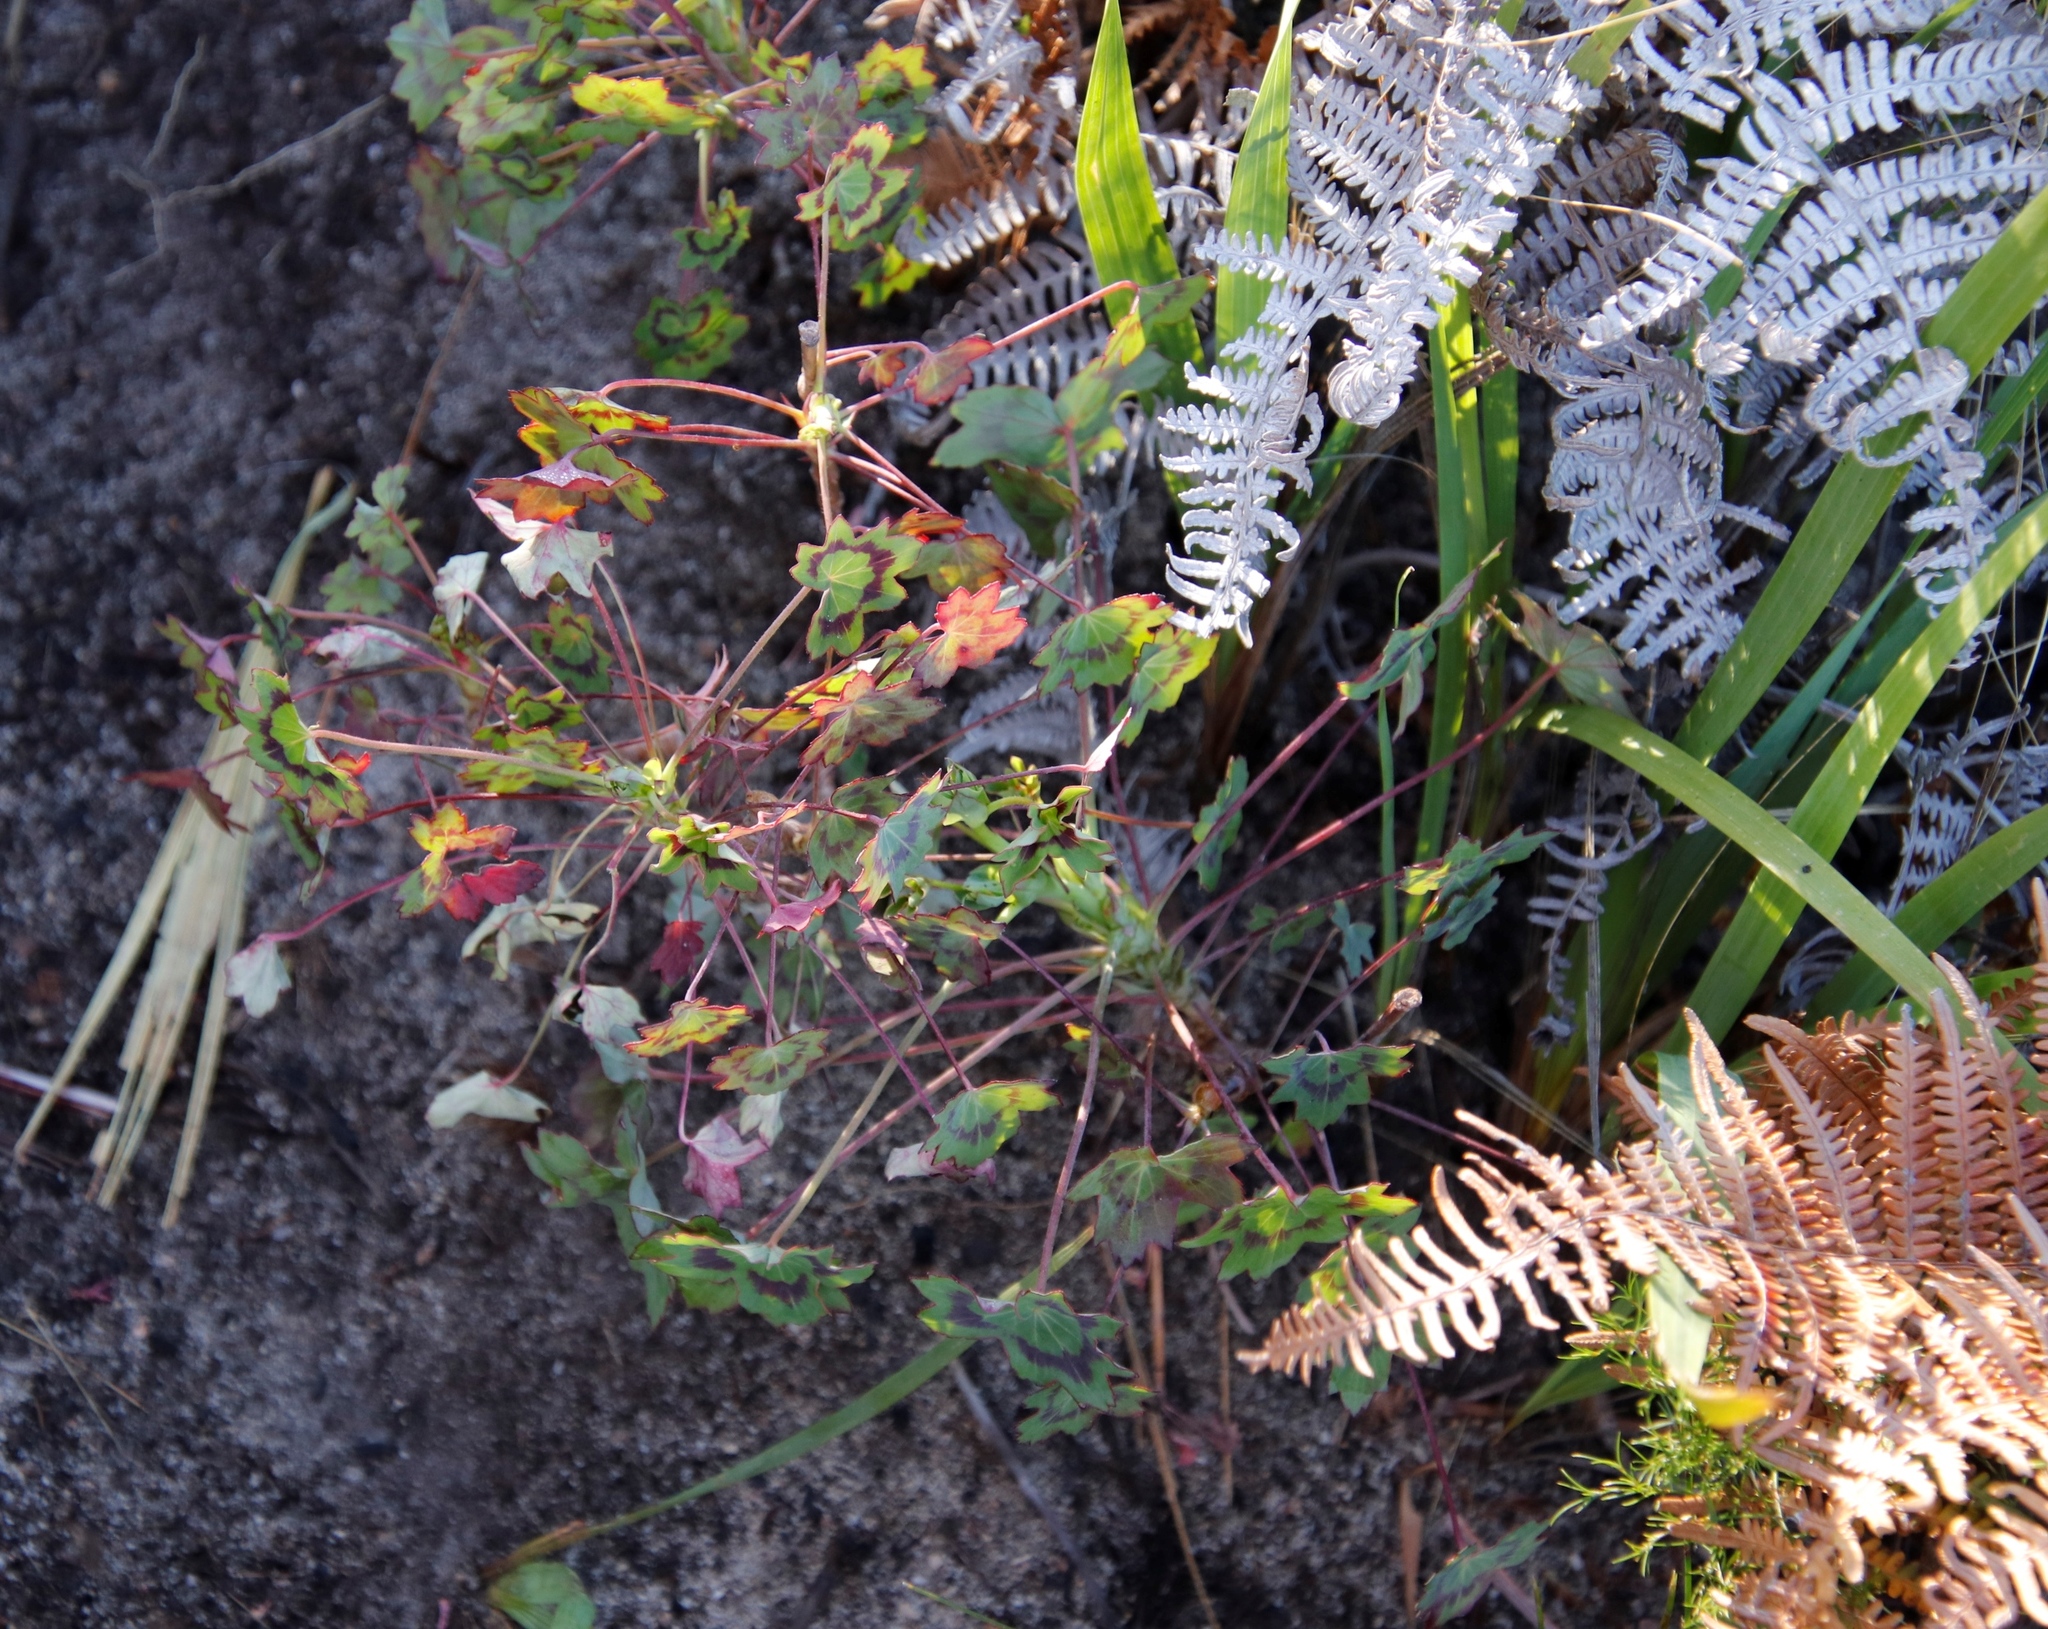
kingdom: Plantae
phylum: Tracheophyta
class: Magnoliopsida
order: Geraniales
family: Geraniaceae
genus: Pelargonium
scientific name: Pelargonium patulum
